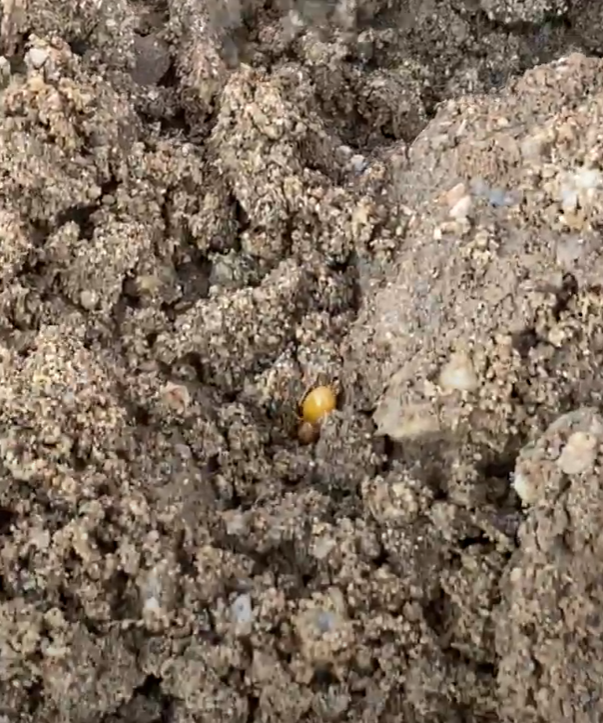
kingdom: Animalia
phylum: Arthropoda
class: Insecta
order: Hymenoptera
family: Formicidae
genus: Myrmecocystus
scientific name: Myrmecocystus navajo
